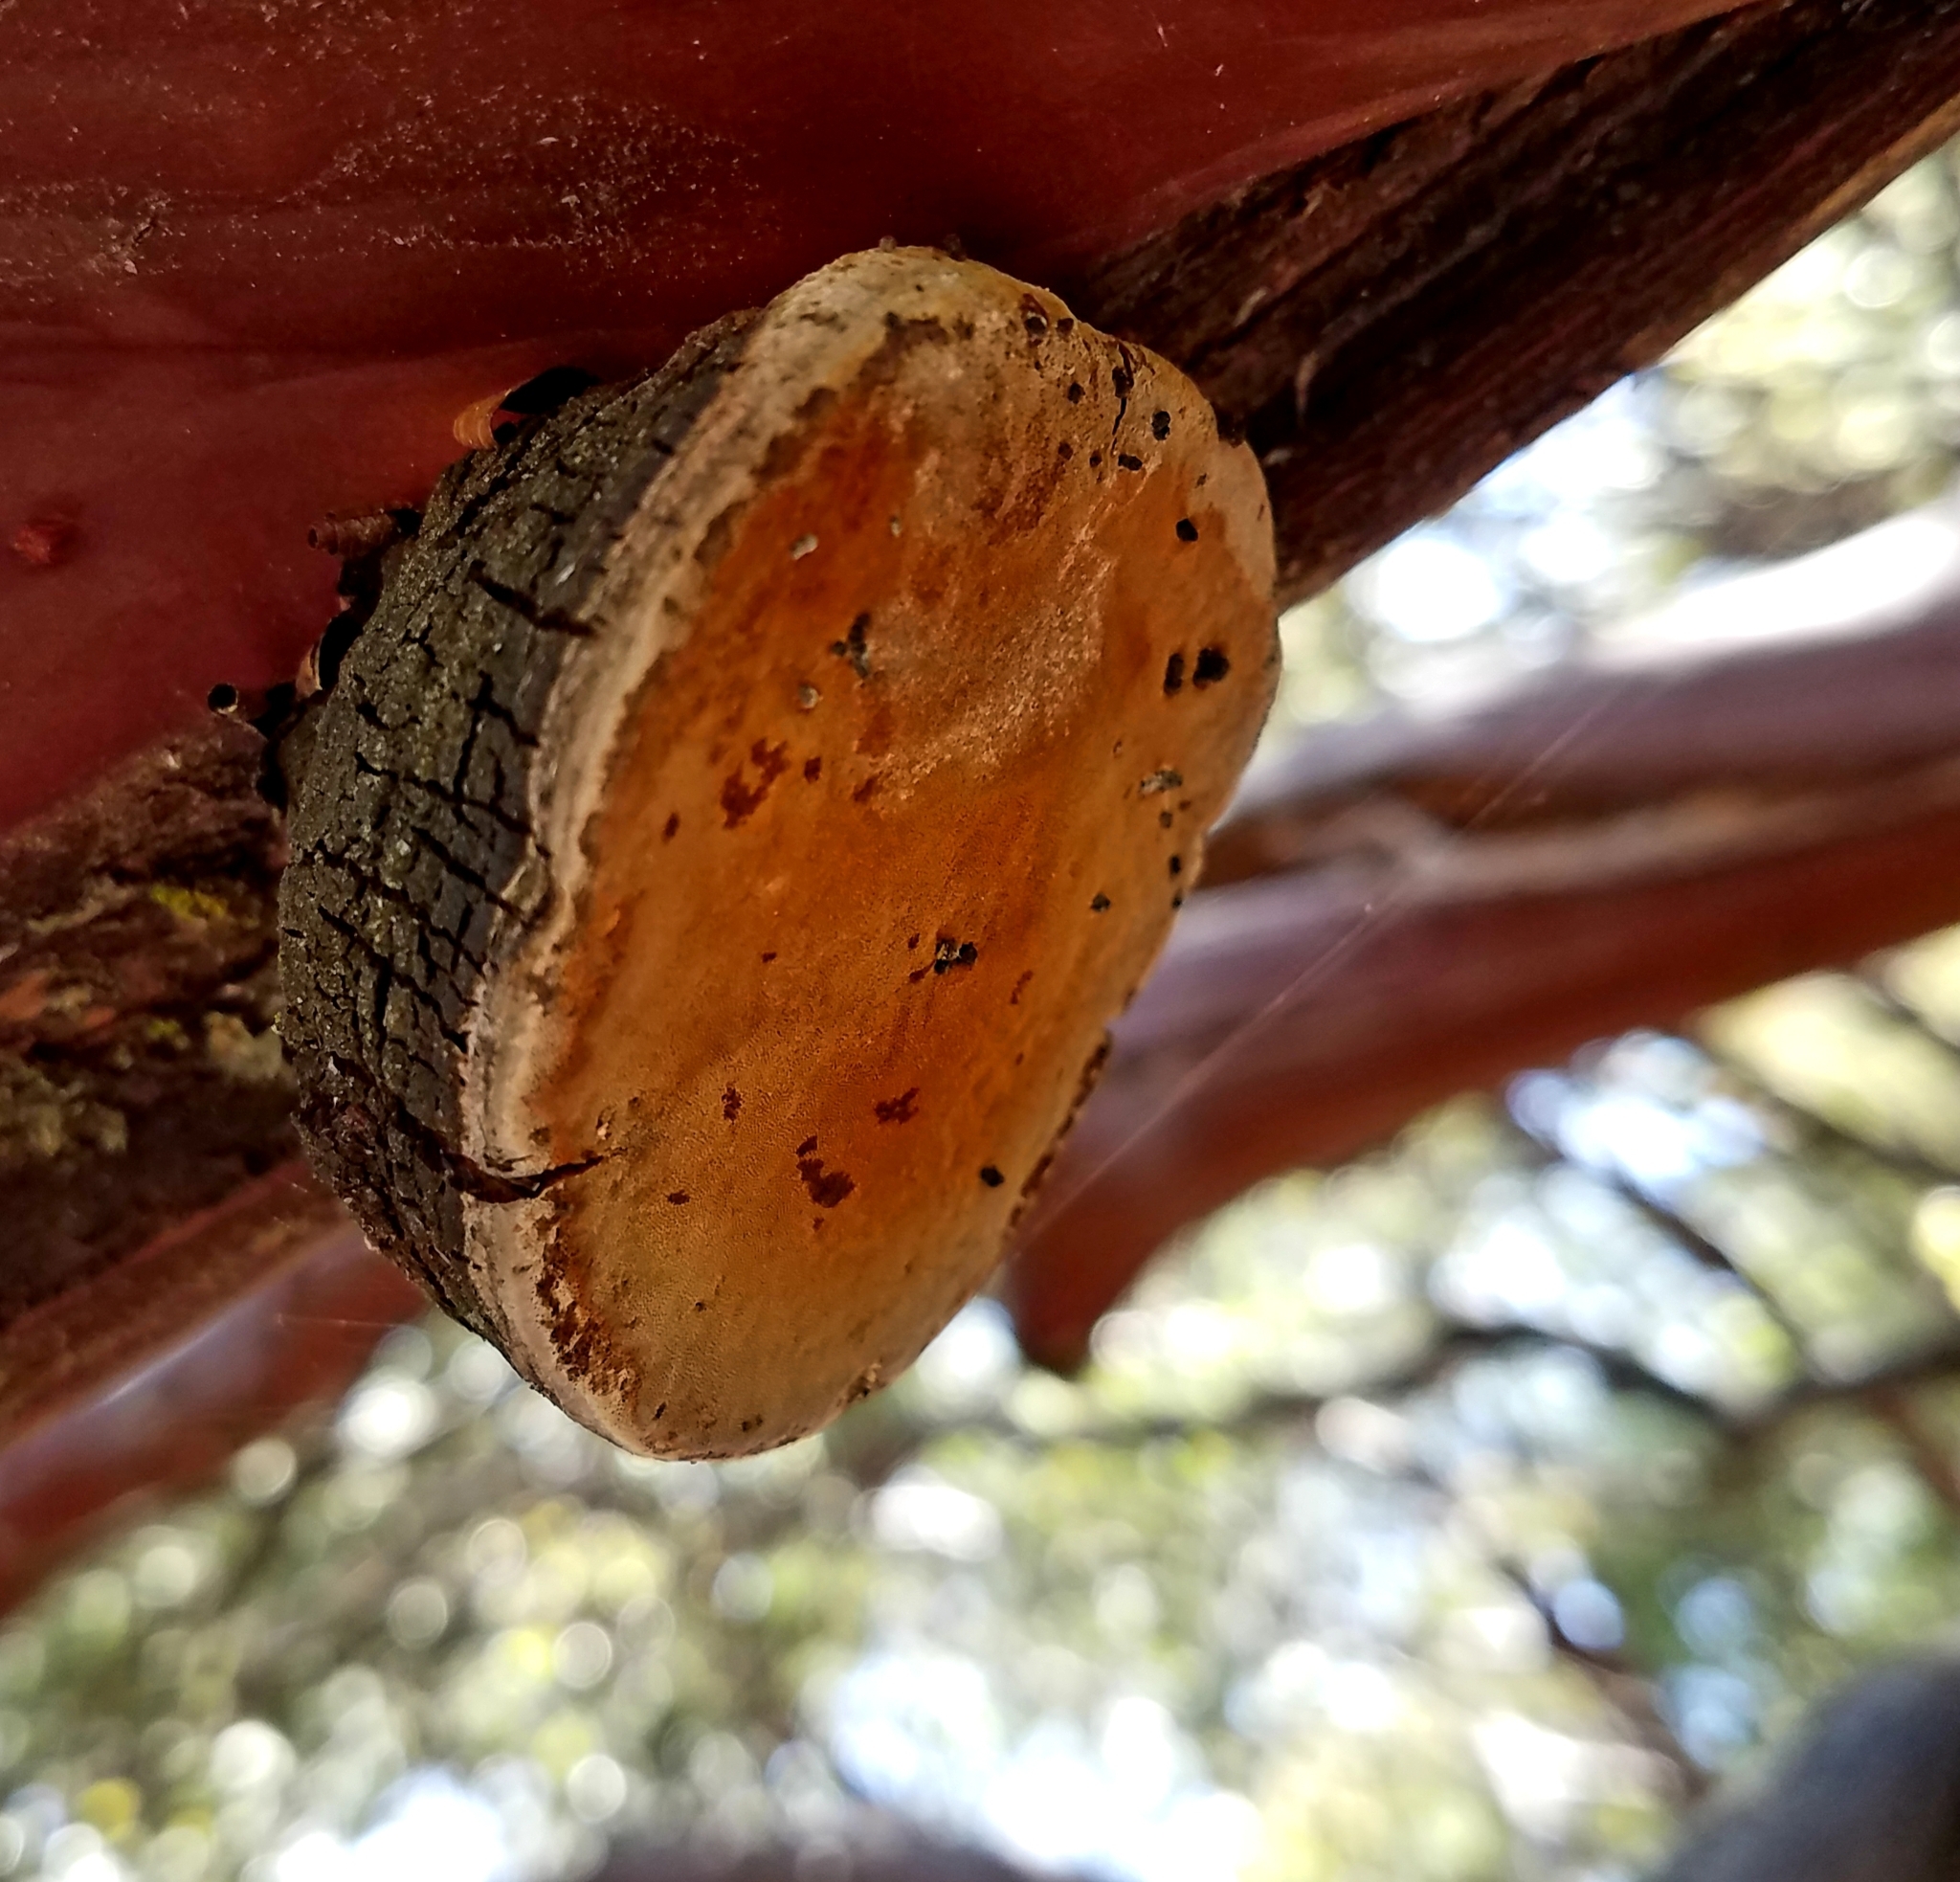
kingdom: Fungi
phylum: Basidiomycota
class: Agaricomycetes
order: Polyporales
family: Polyporaceae
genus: Fomes
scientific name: Fomes arctostaphyli
